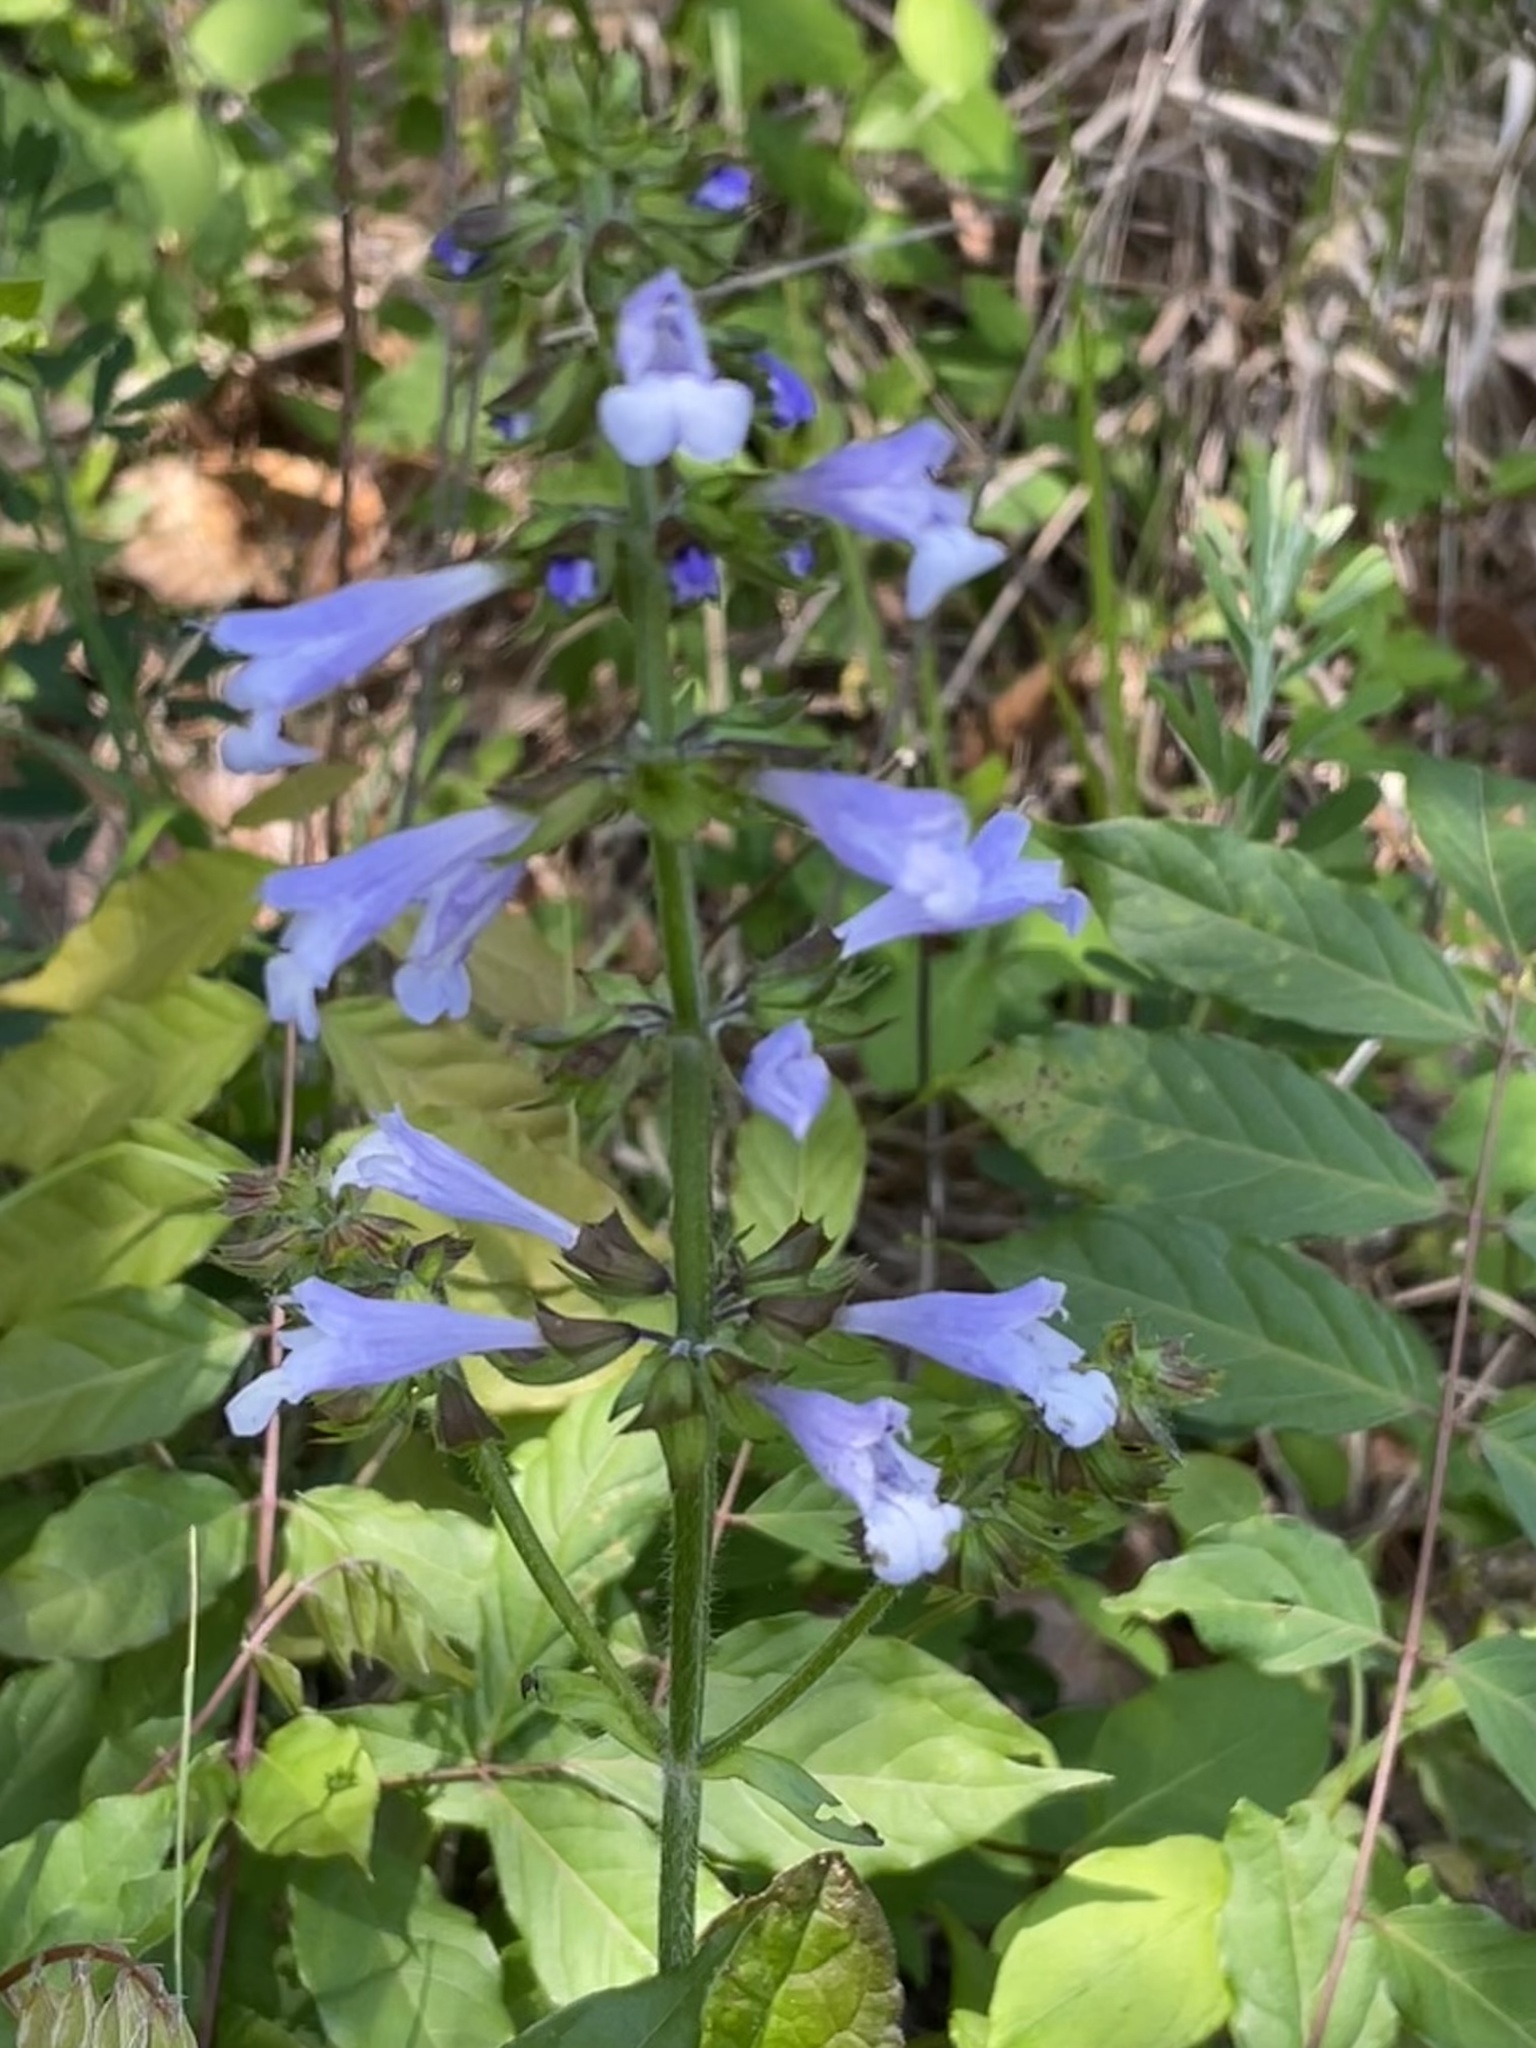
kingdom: Plantae
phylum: Tracheophyta
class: Magnoliopsida
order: Lamiales
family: Lamiaceae
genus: Salvia
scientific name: Salvia lyrata
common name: Cancerweed
